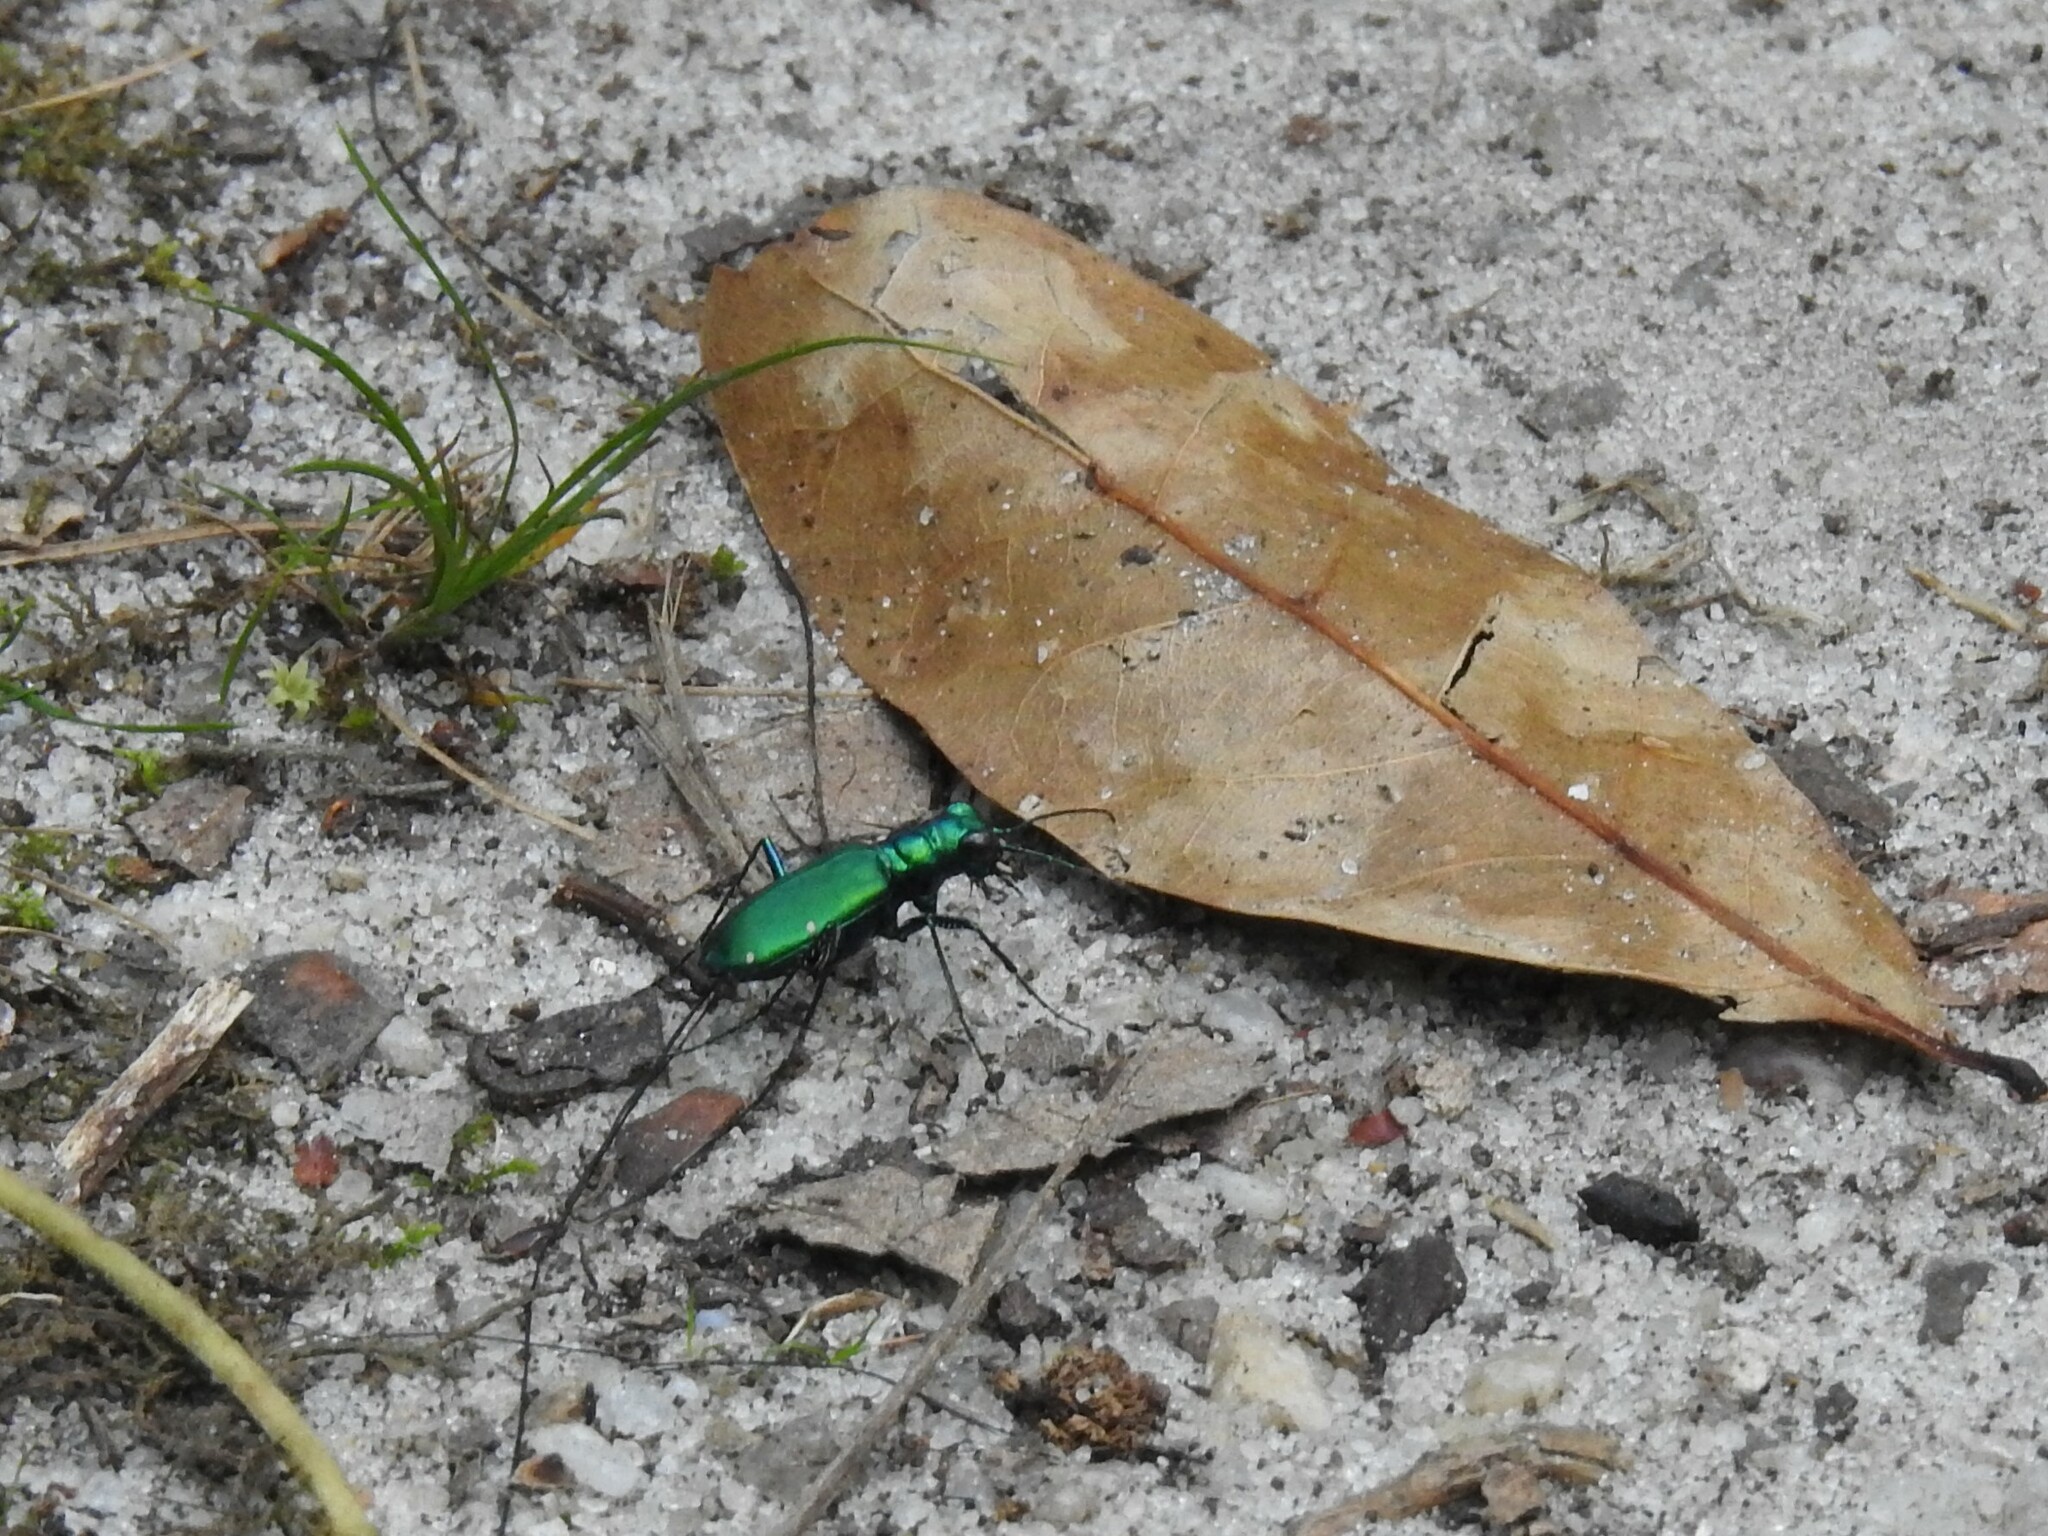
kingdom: Animalia
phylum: Arthropoda
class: Insecta
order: Coleoptera
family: Carabidae
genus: Cicindela
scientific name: Cicindela sexguttata
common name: Six-spotted tiger beetle
